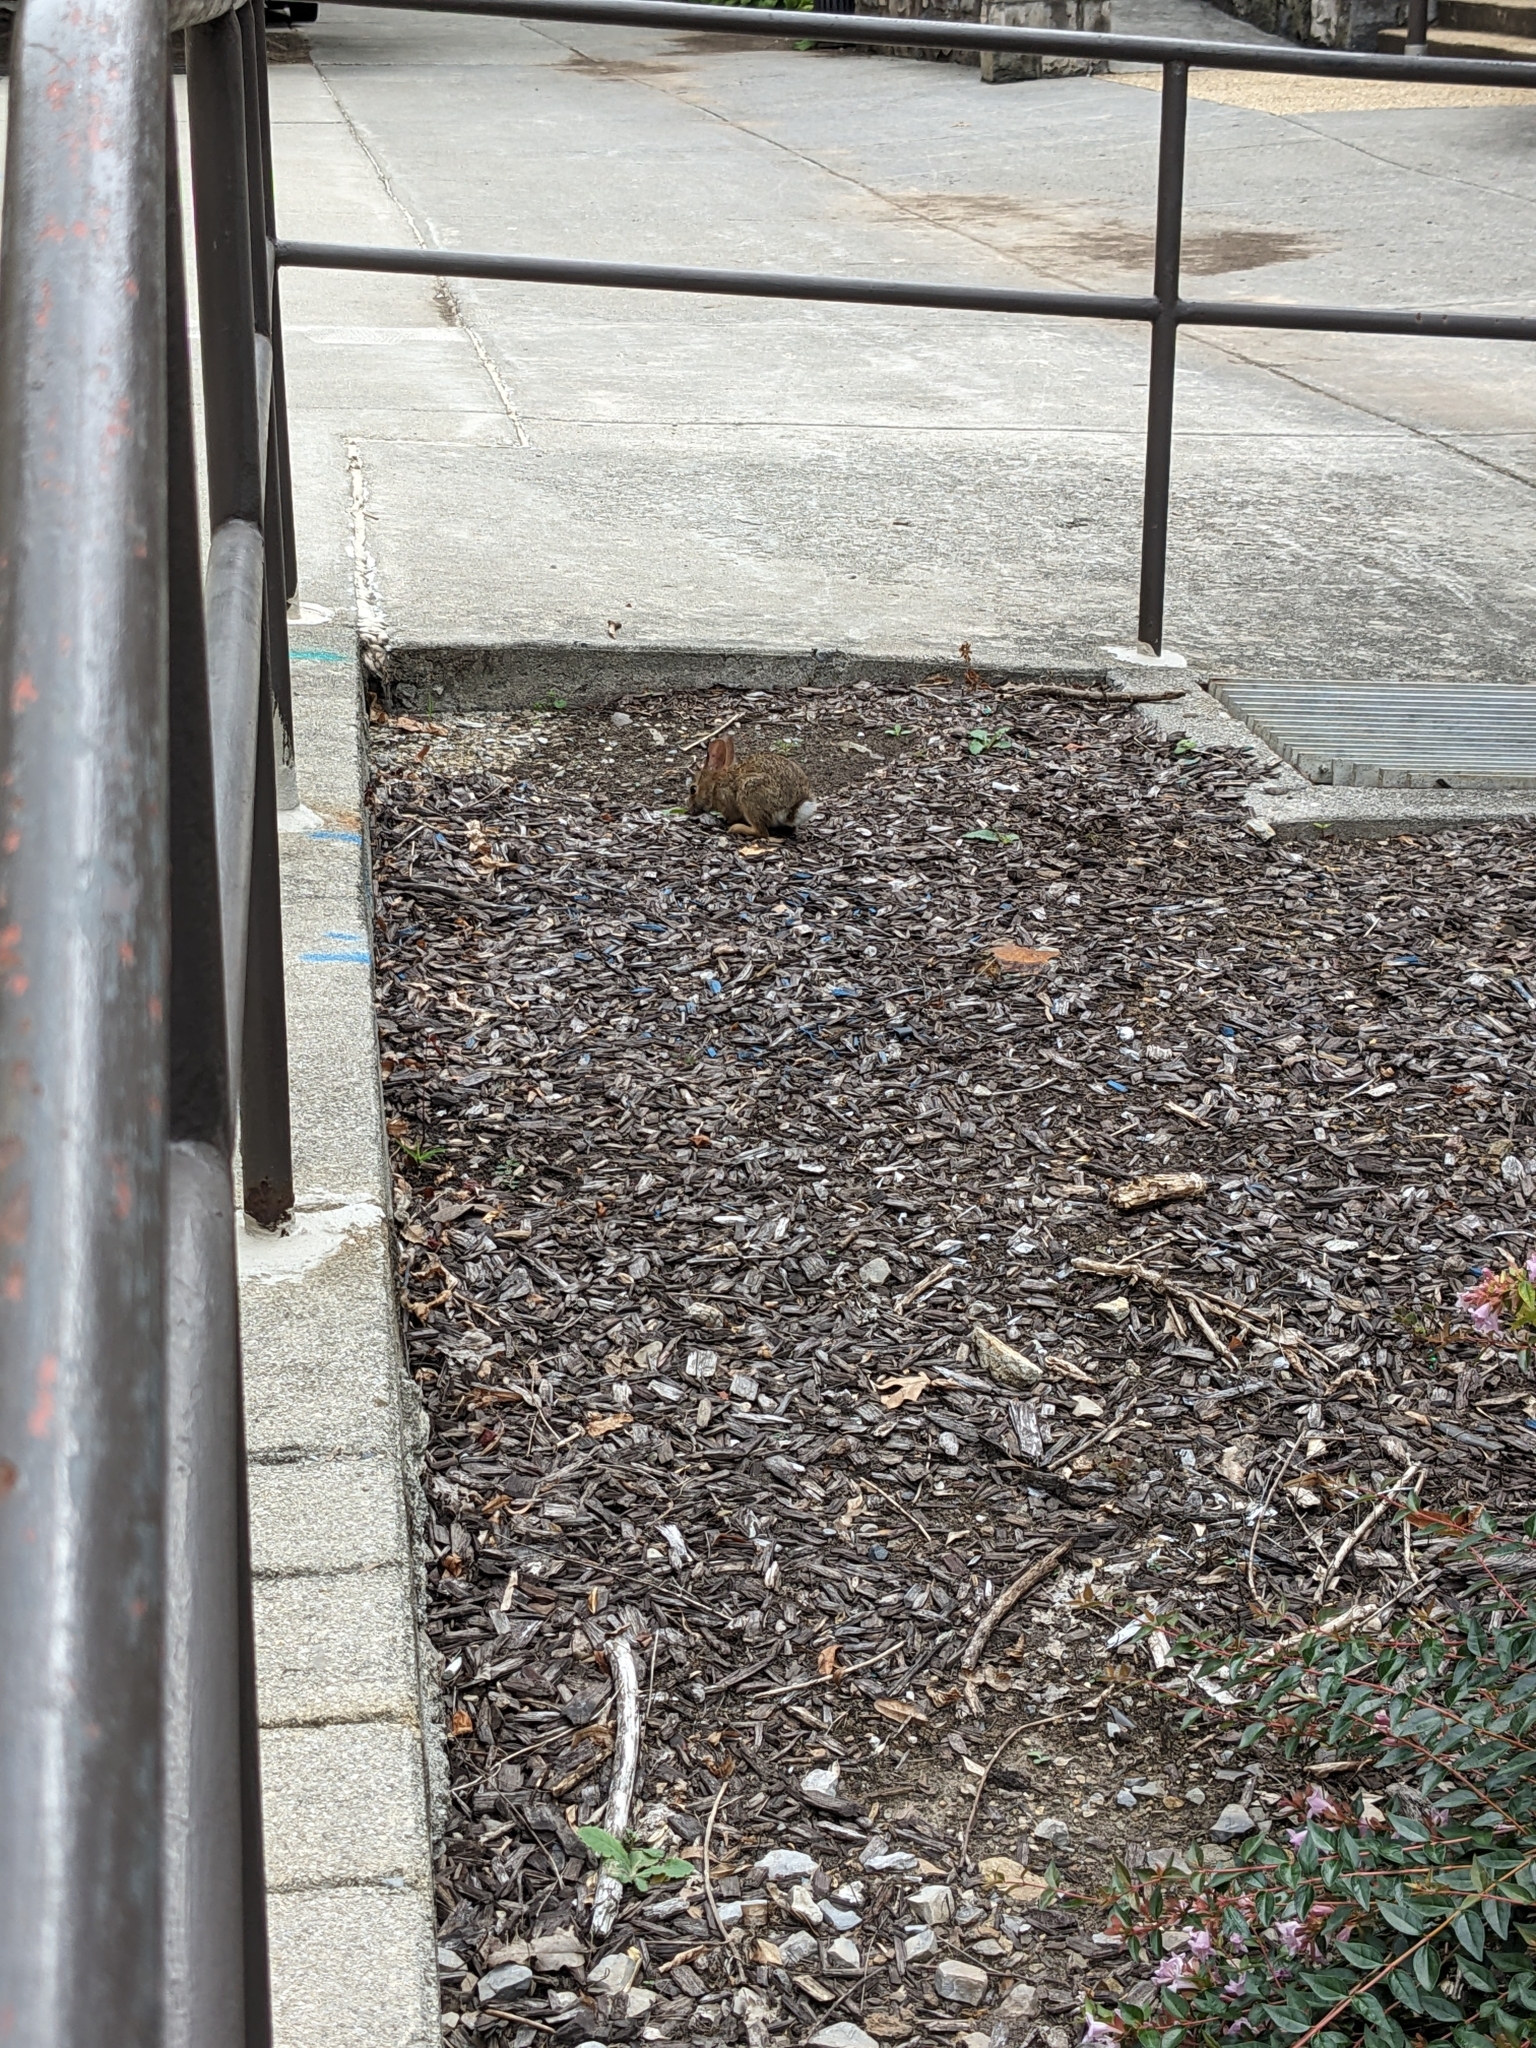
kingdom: Animalia
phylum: Chordata
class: Mammalia
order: Lagomorpha
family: Leporidae
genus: Sylvilagus
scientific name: Sylvilagus floridanus
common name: Eastern cottontail
